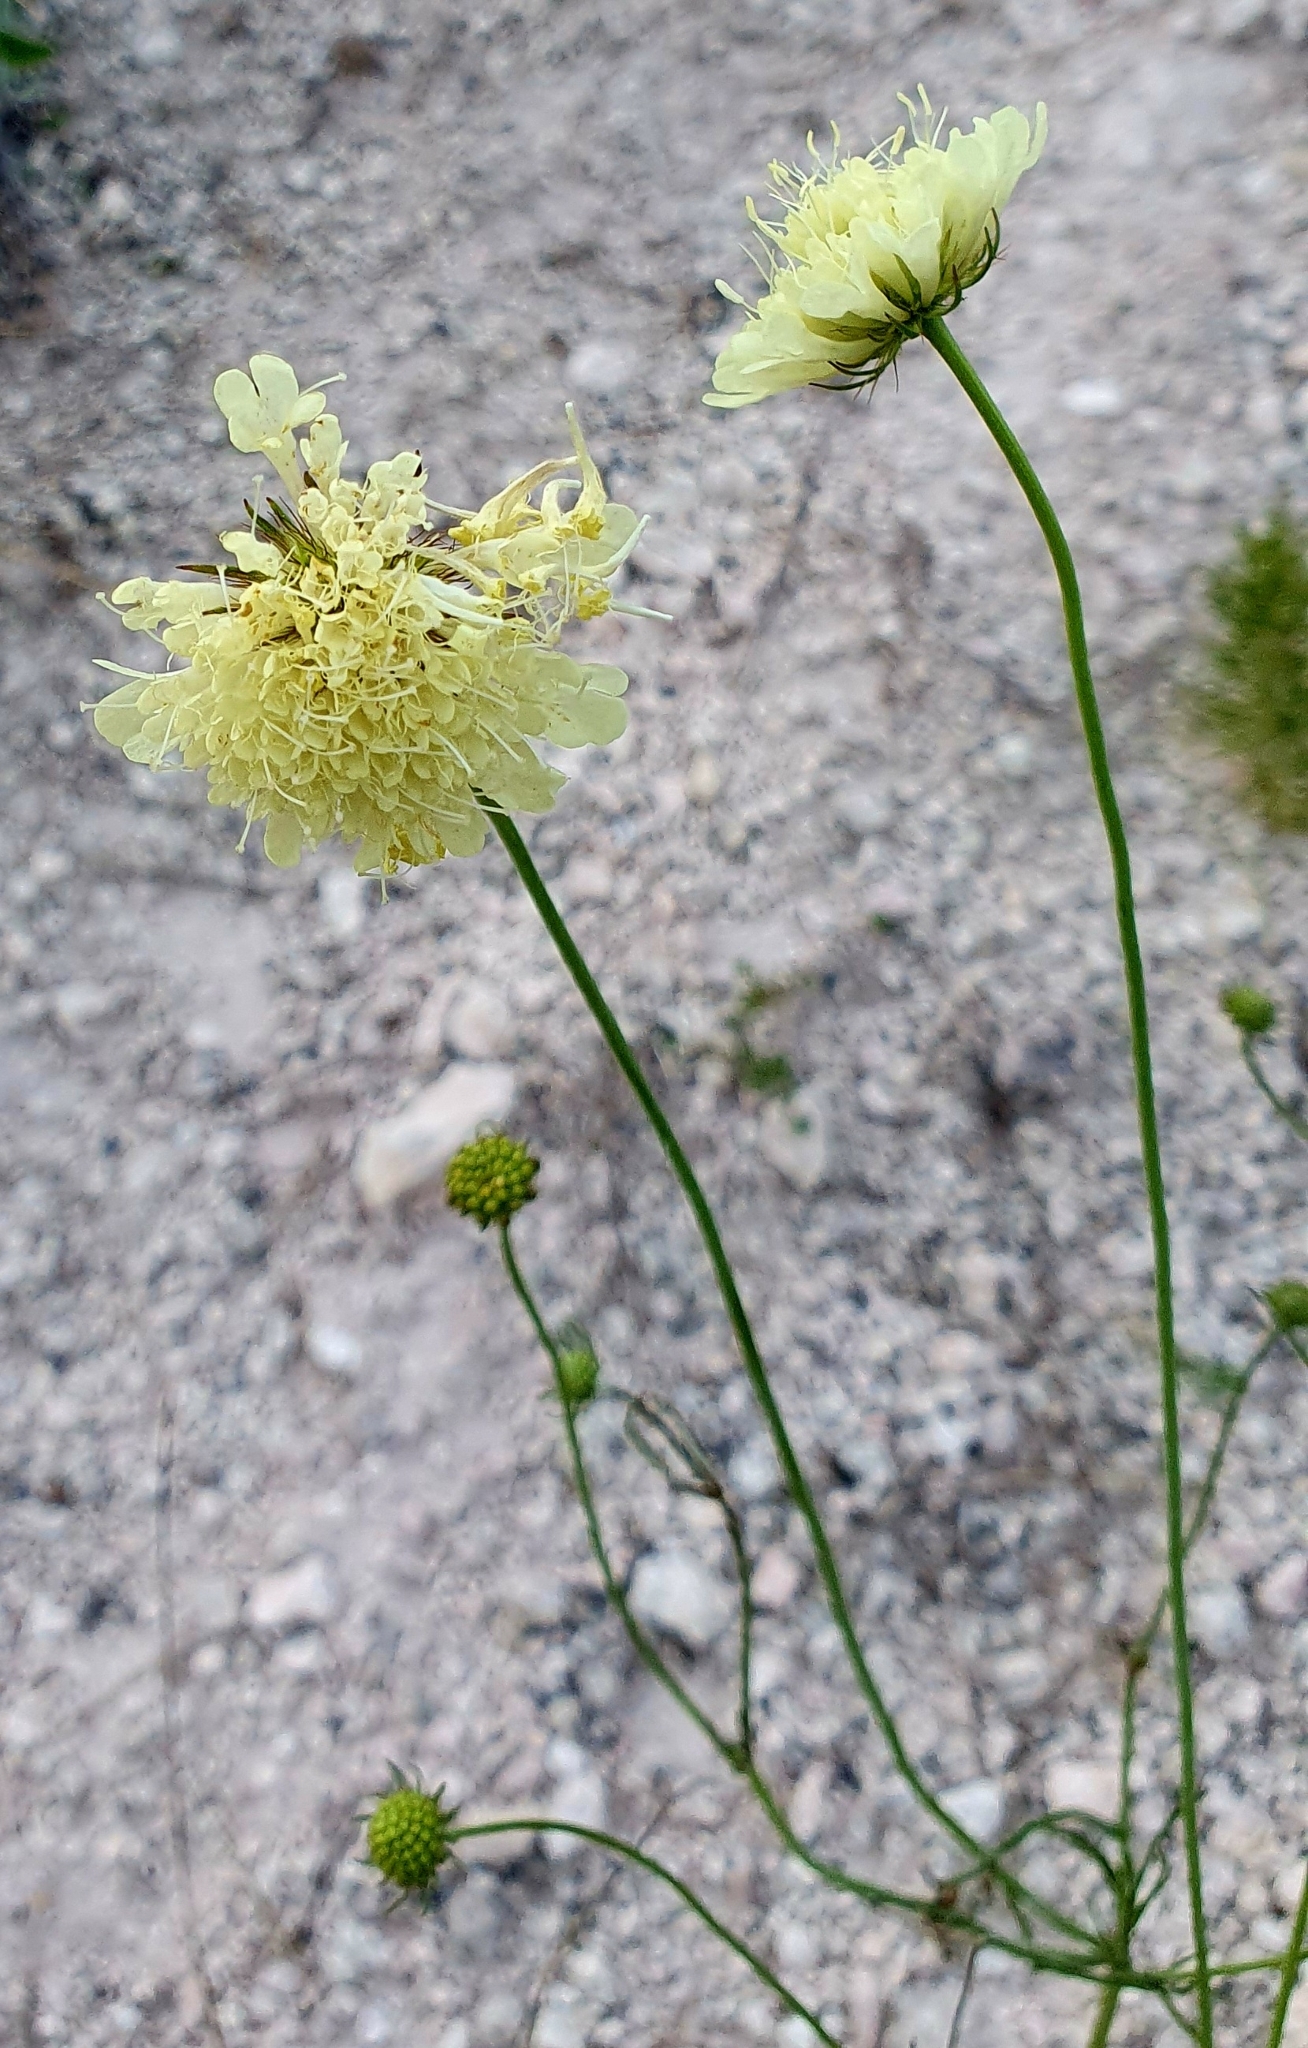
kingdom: Plantae
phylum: Tracheophyta
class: Magnoliopsida
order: Dipsacales
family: Caprifoliaceae
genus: Scabiosa
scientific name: Scabiosa ochroleuca
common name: Cream pincushions
